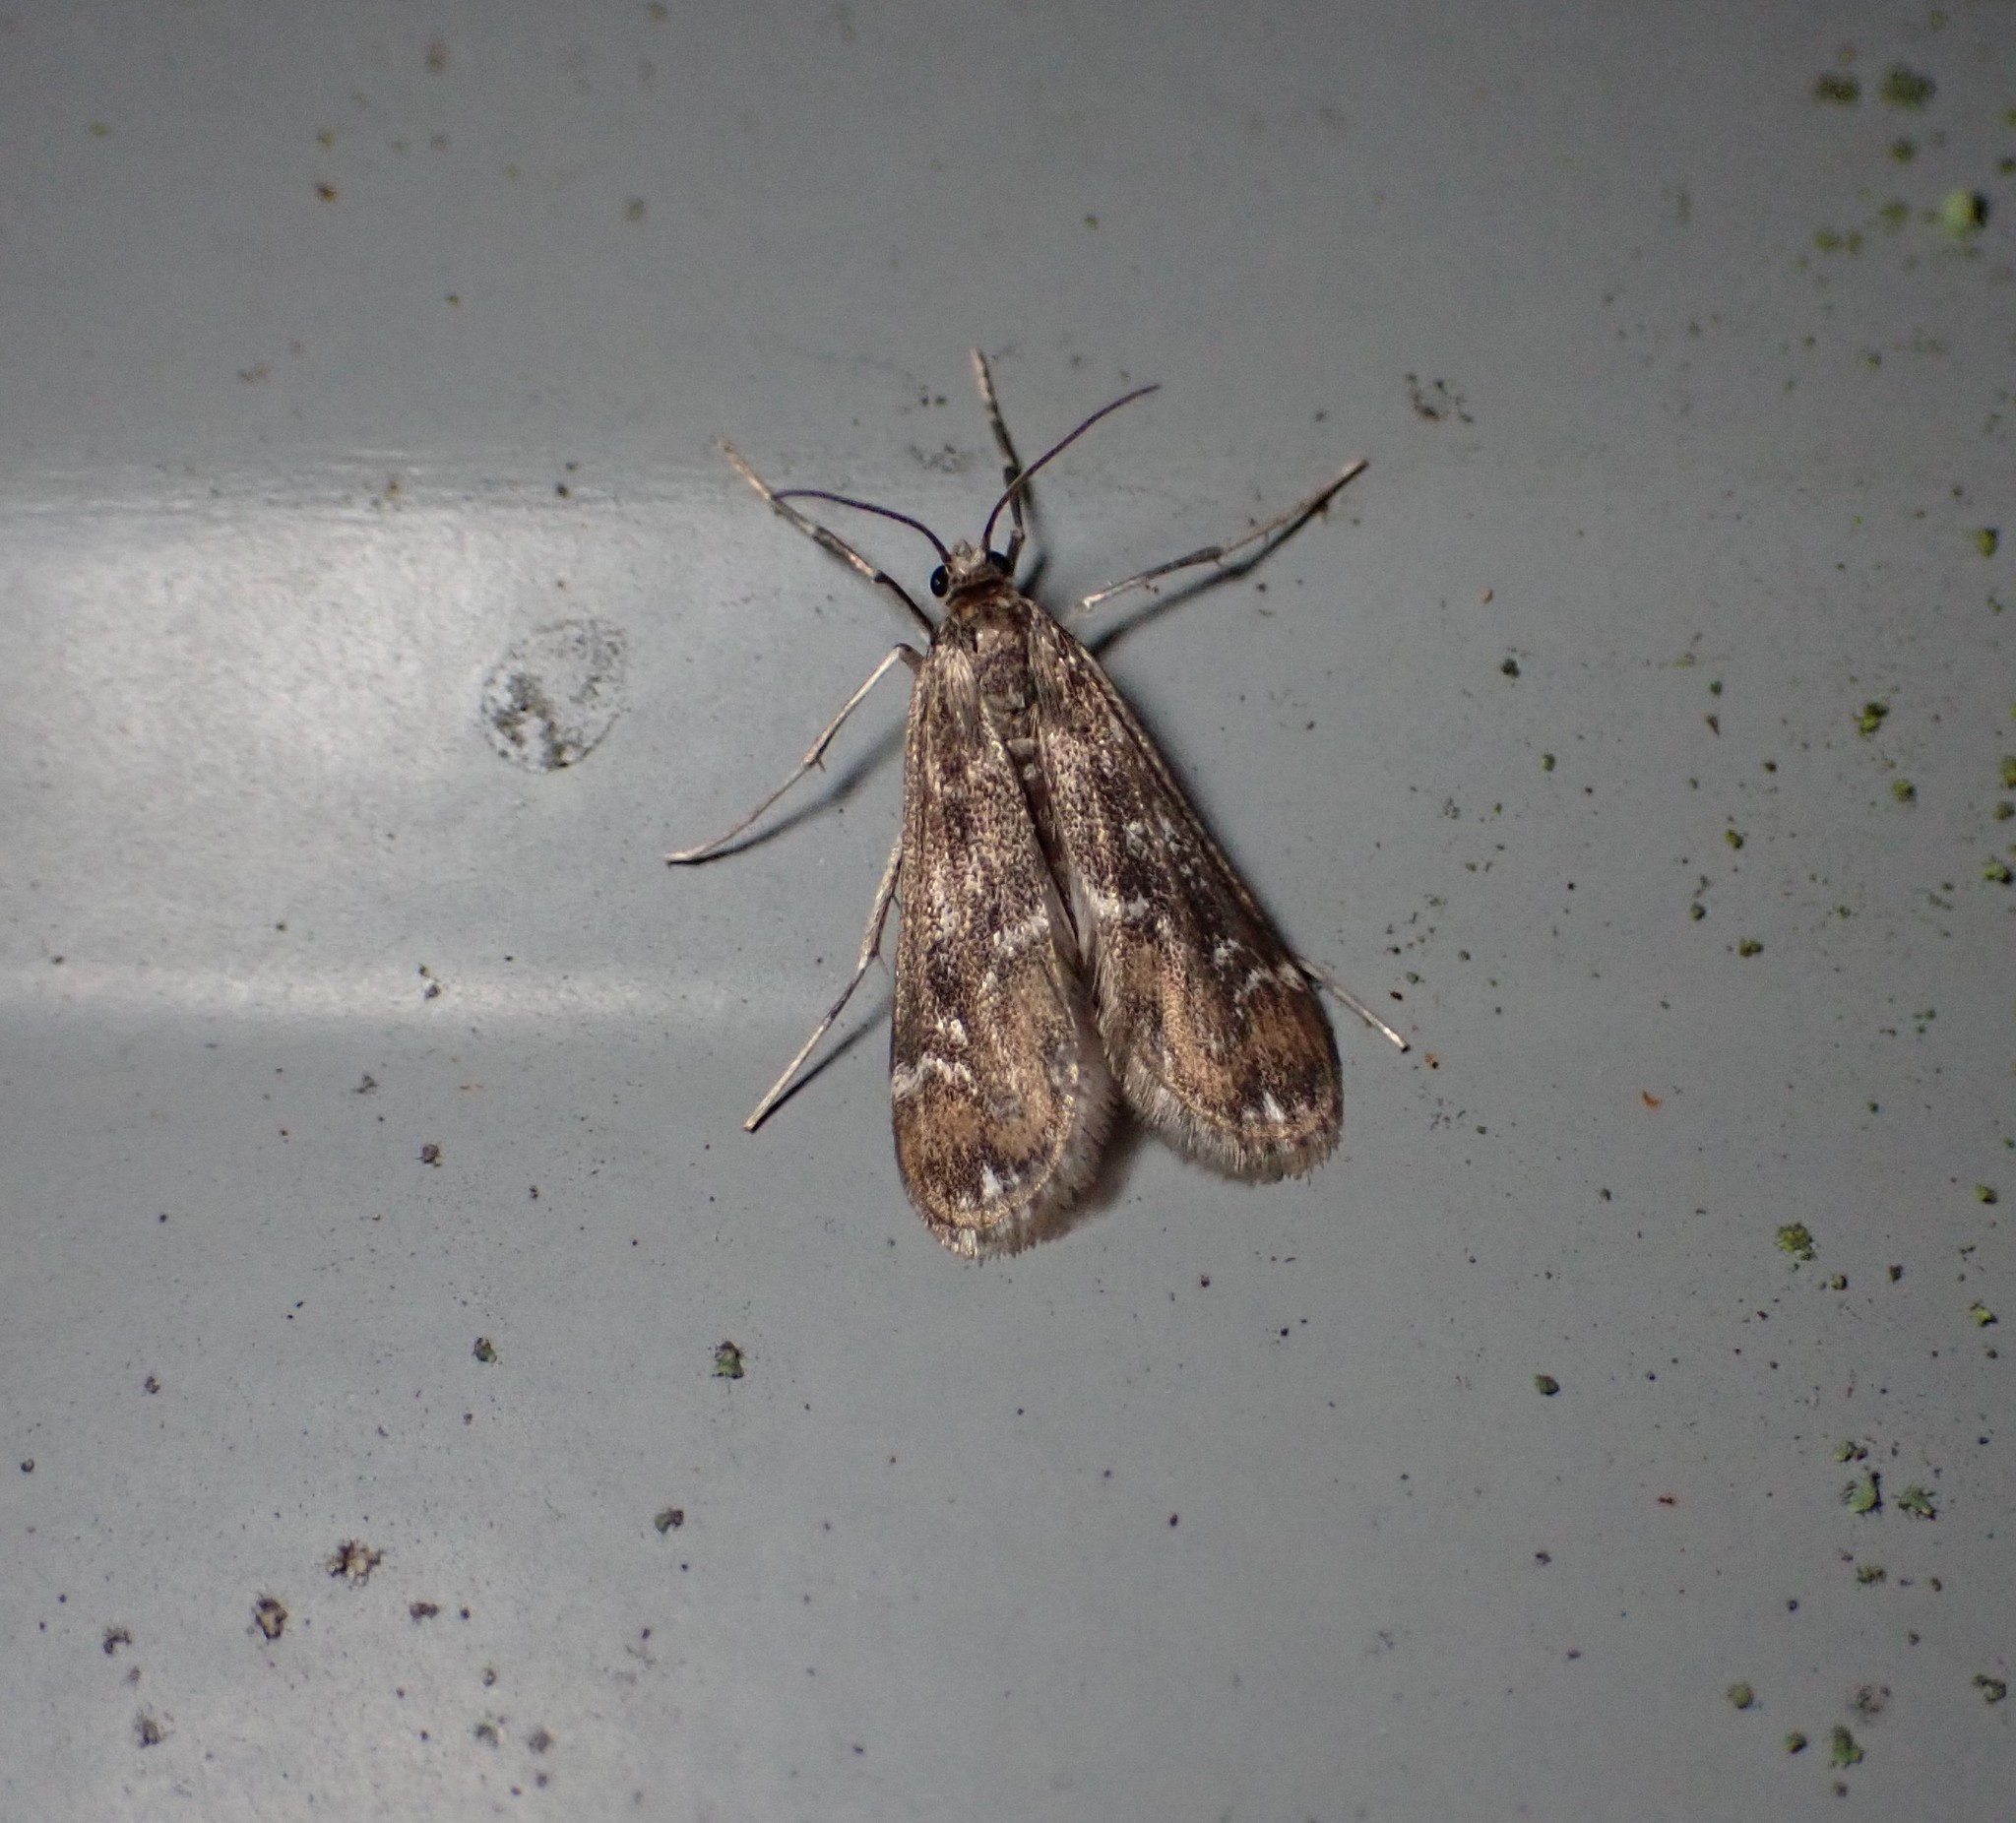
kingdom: Animalia
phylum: Arthropoda
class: Insecta
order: Lepidoptera
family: Crambidae
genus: Hygraula
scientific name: Hygraula nitens
